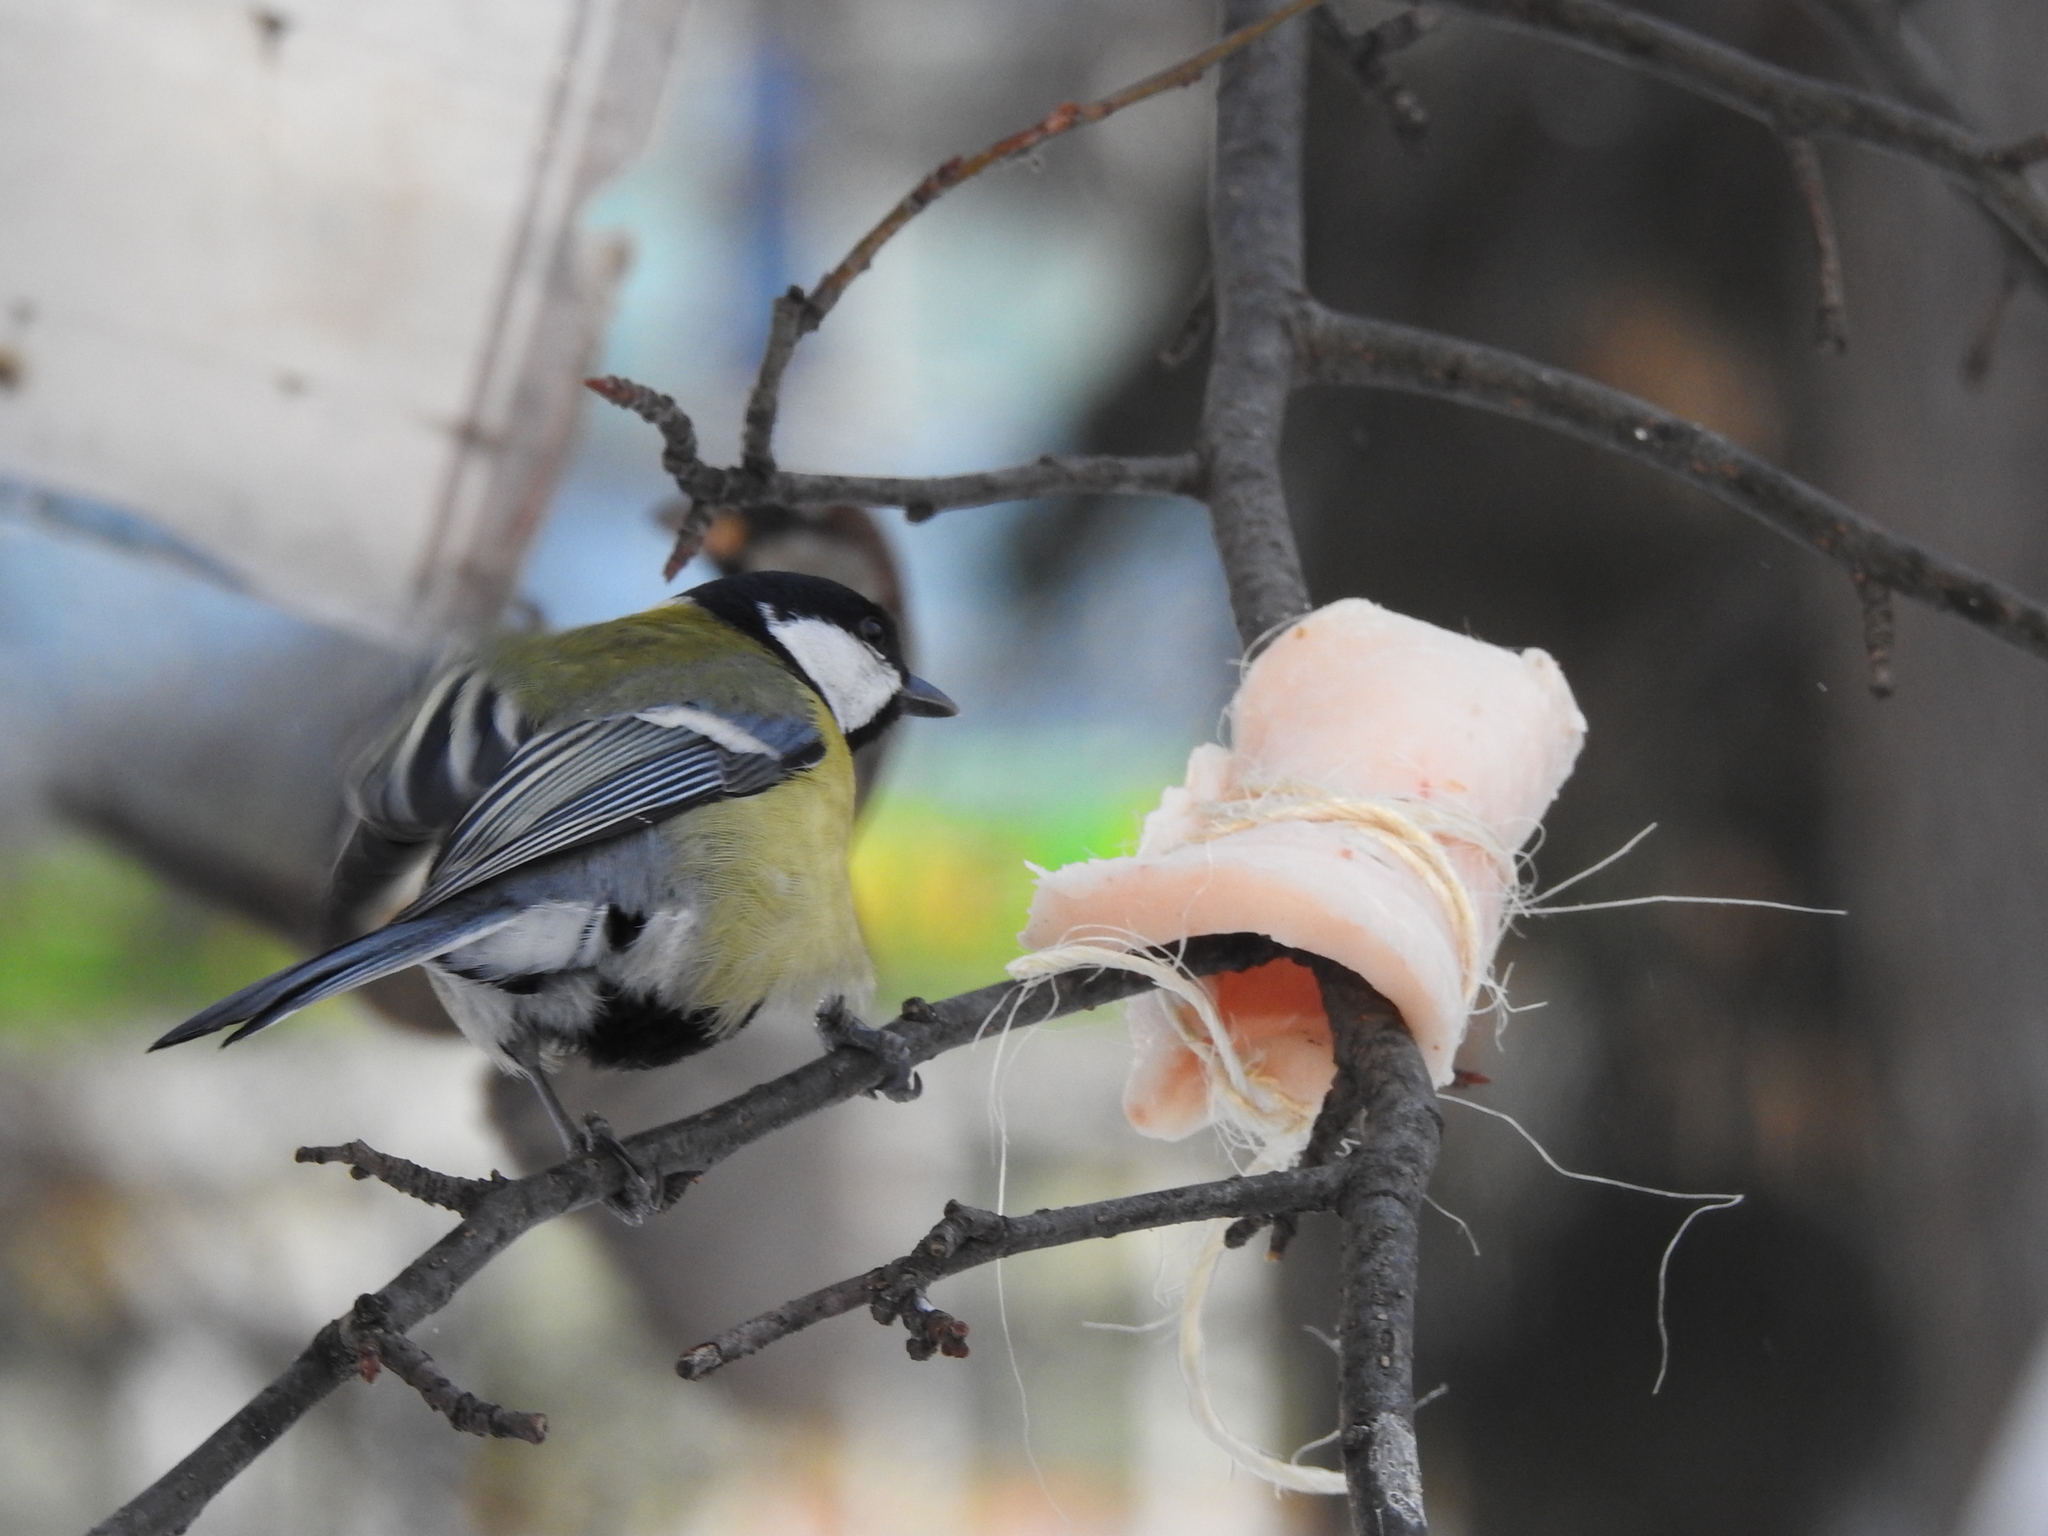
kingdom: Animalia
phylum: Chordata
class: Aves
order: Passeriformes
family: Paridae
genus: Parus
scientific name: Parus major
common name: Great tit
